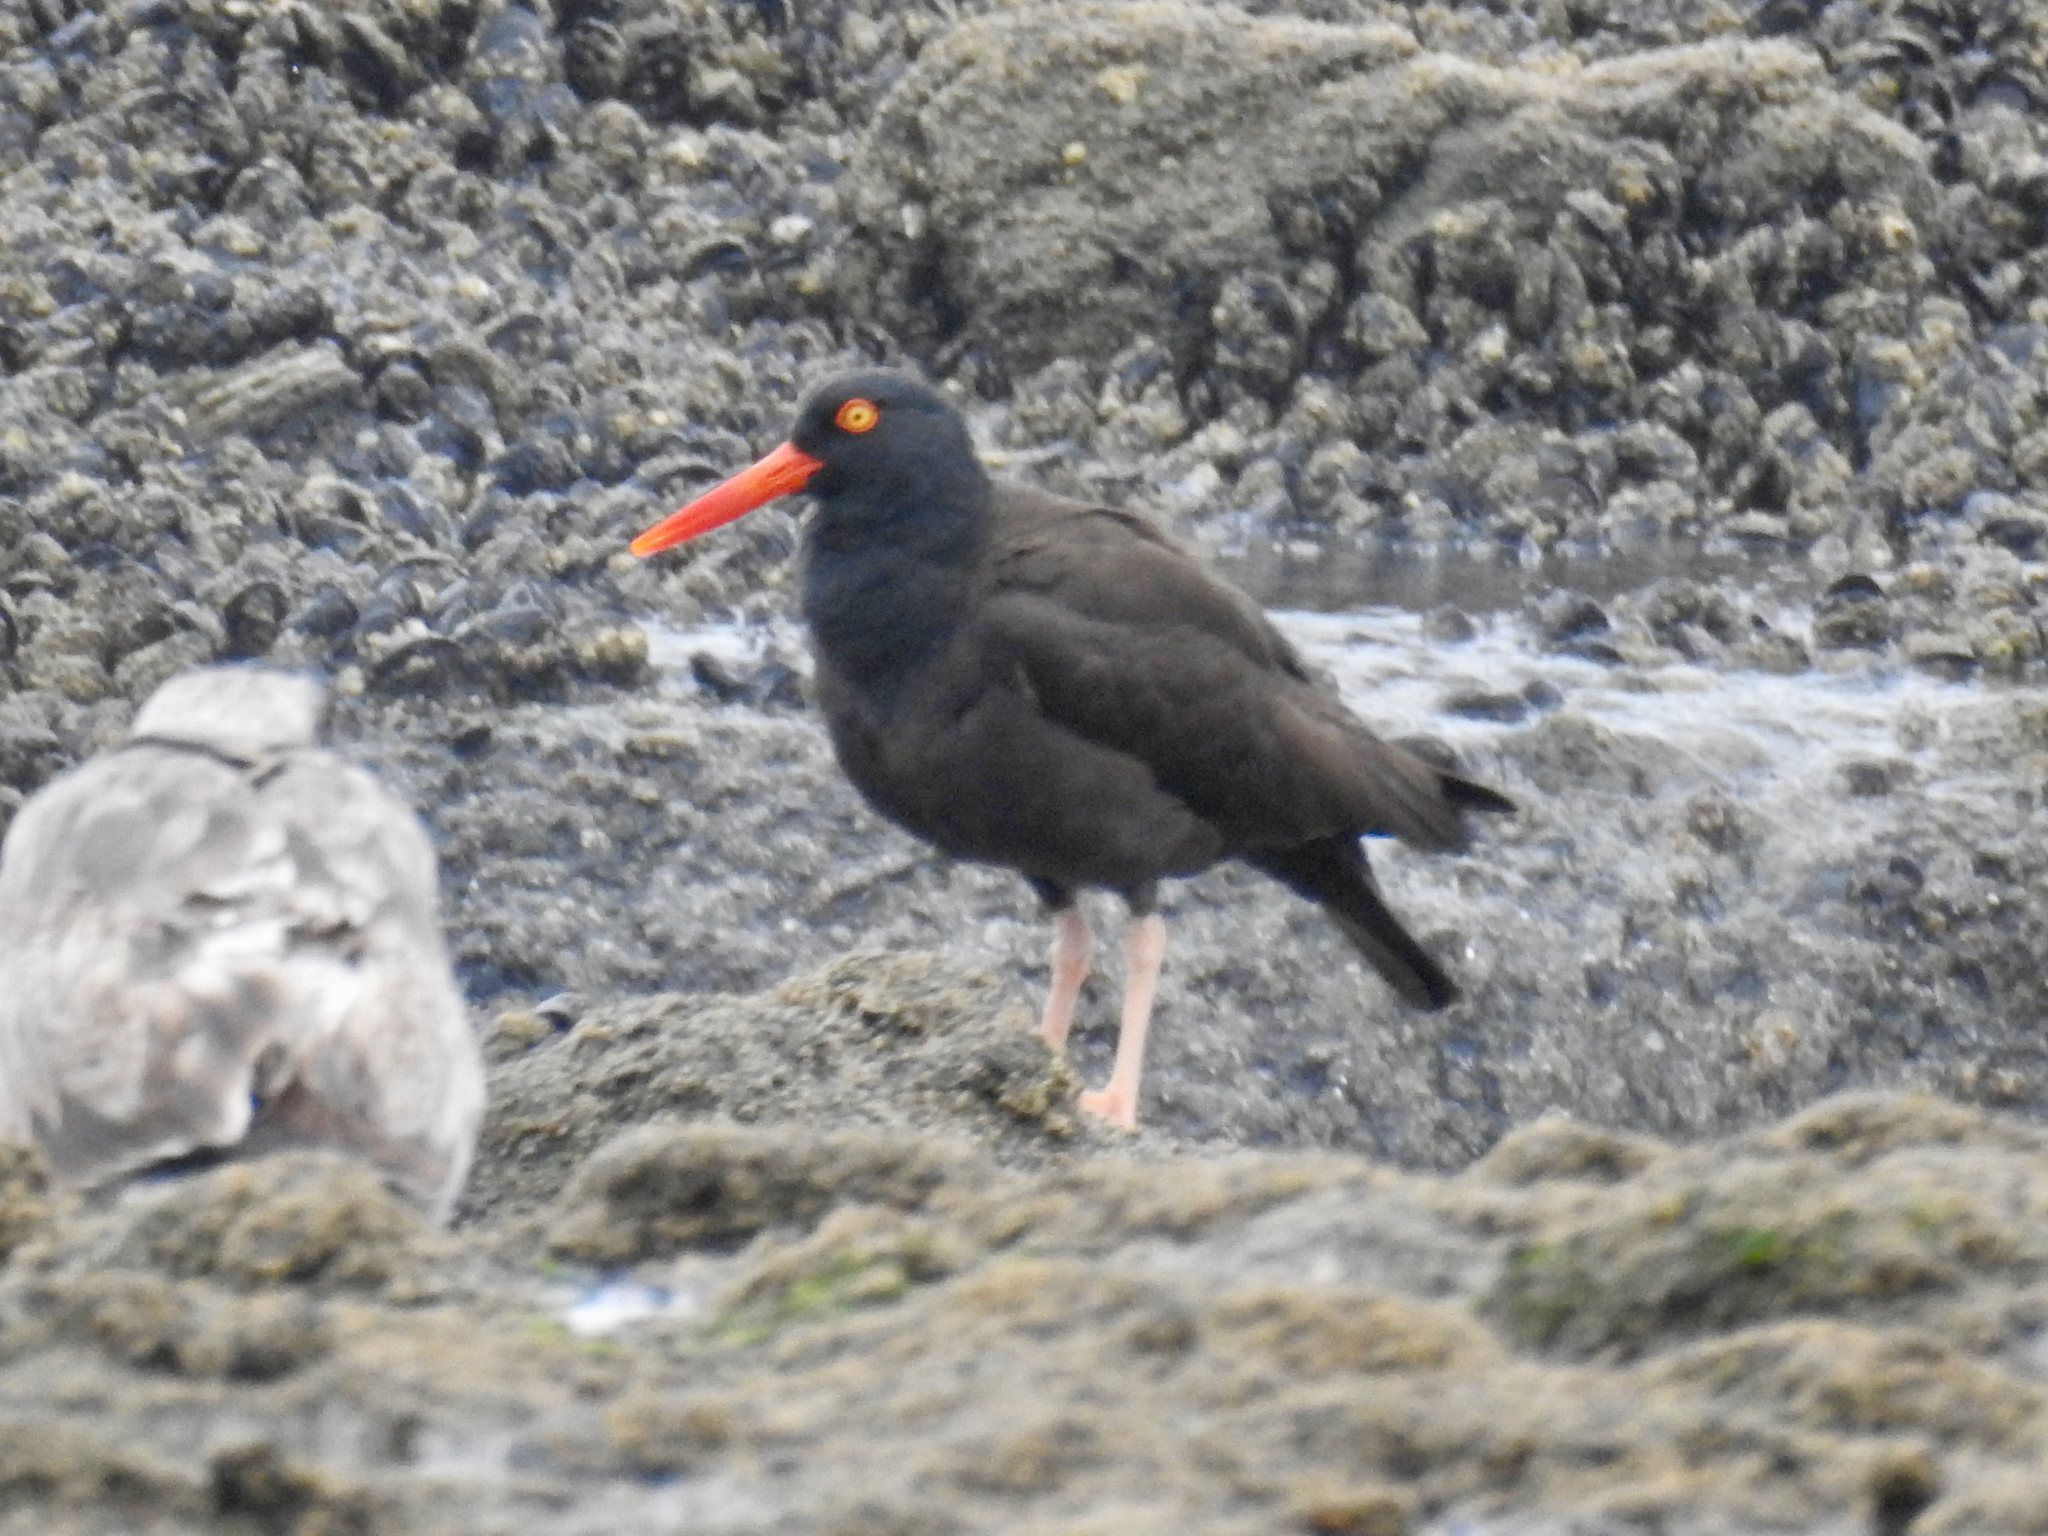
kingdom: Animalia
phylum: Chordata
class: Aves
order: Charadriiformes
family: Haematopodidae
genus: Haematopus
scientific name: Haematopus bachmani
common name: Black oystercatcher
